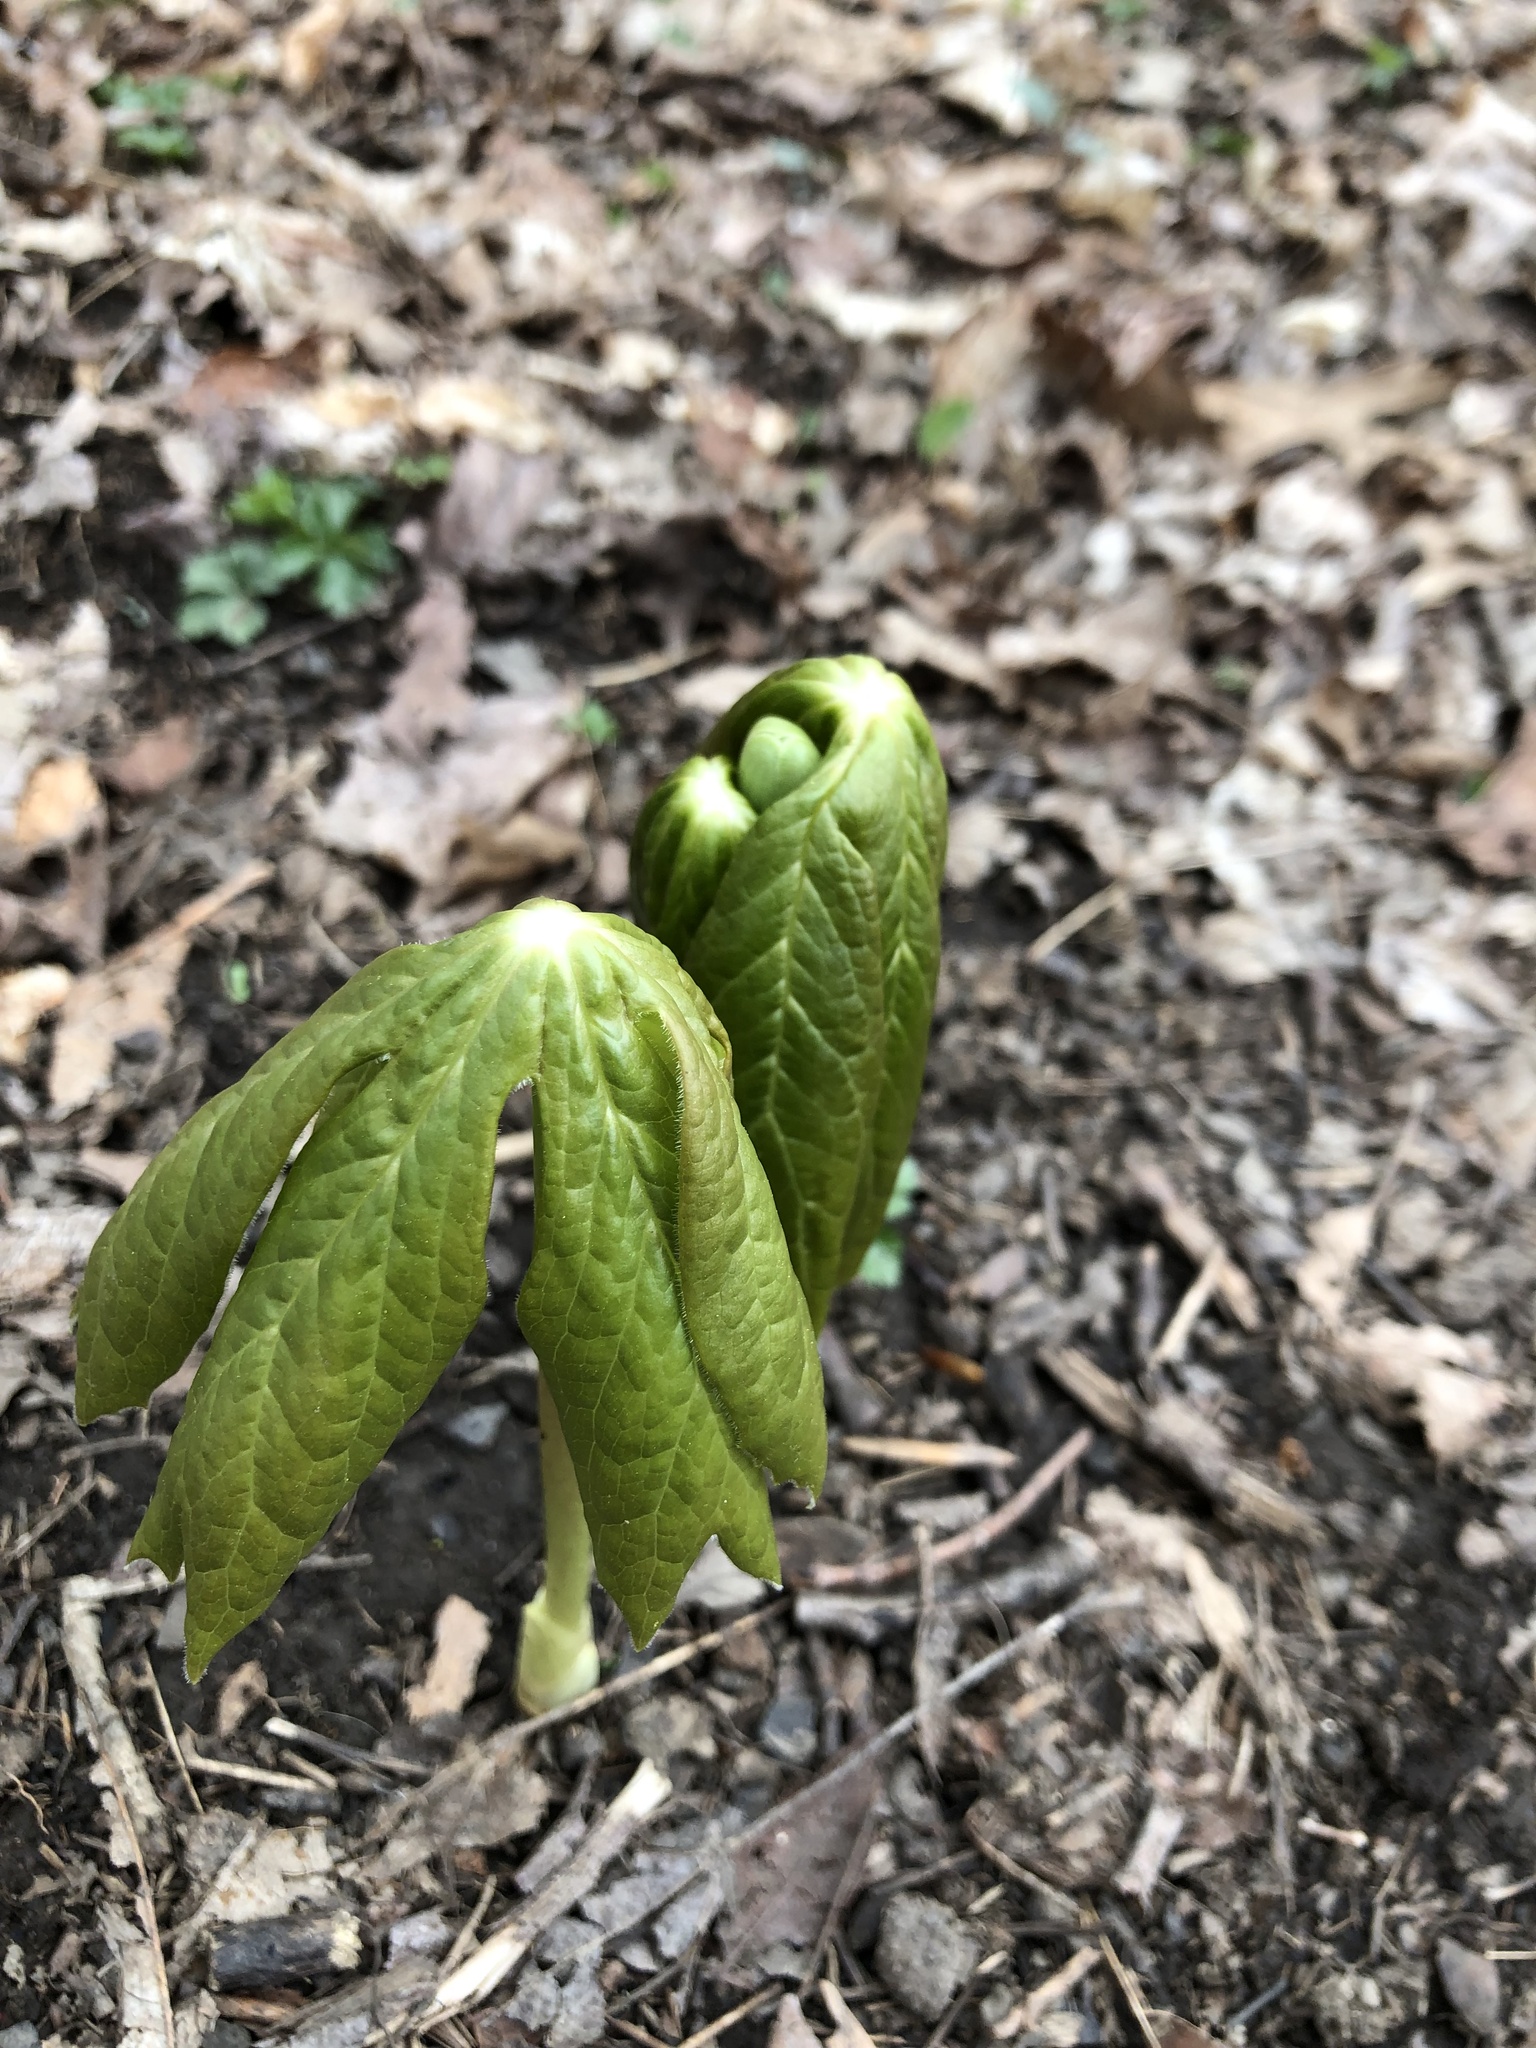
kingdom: Plantae
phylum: Tracheophyta
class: Magnoliopsida
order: Ranunculales
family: Berberidaceae
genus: Podophyllum
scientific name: Podophyllum peltatum
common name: Wild mandrake
